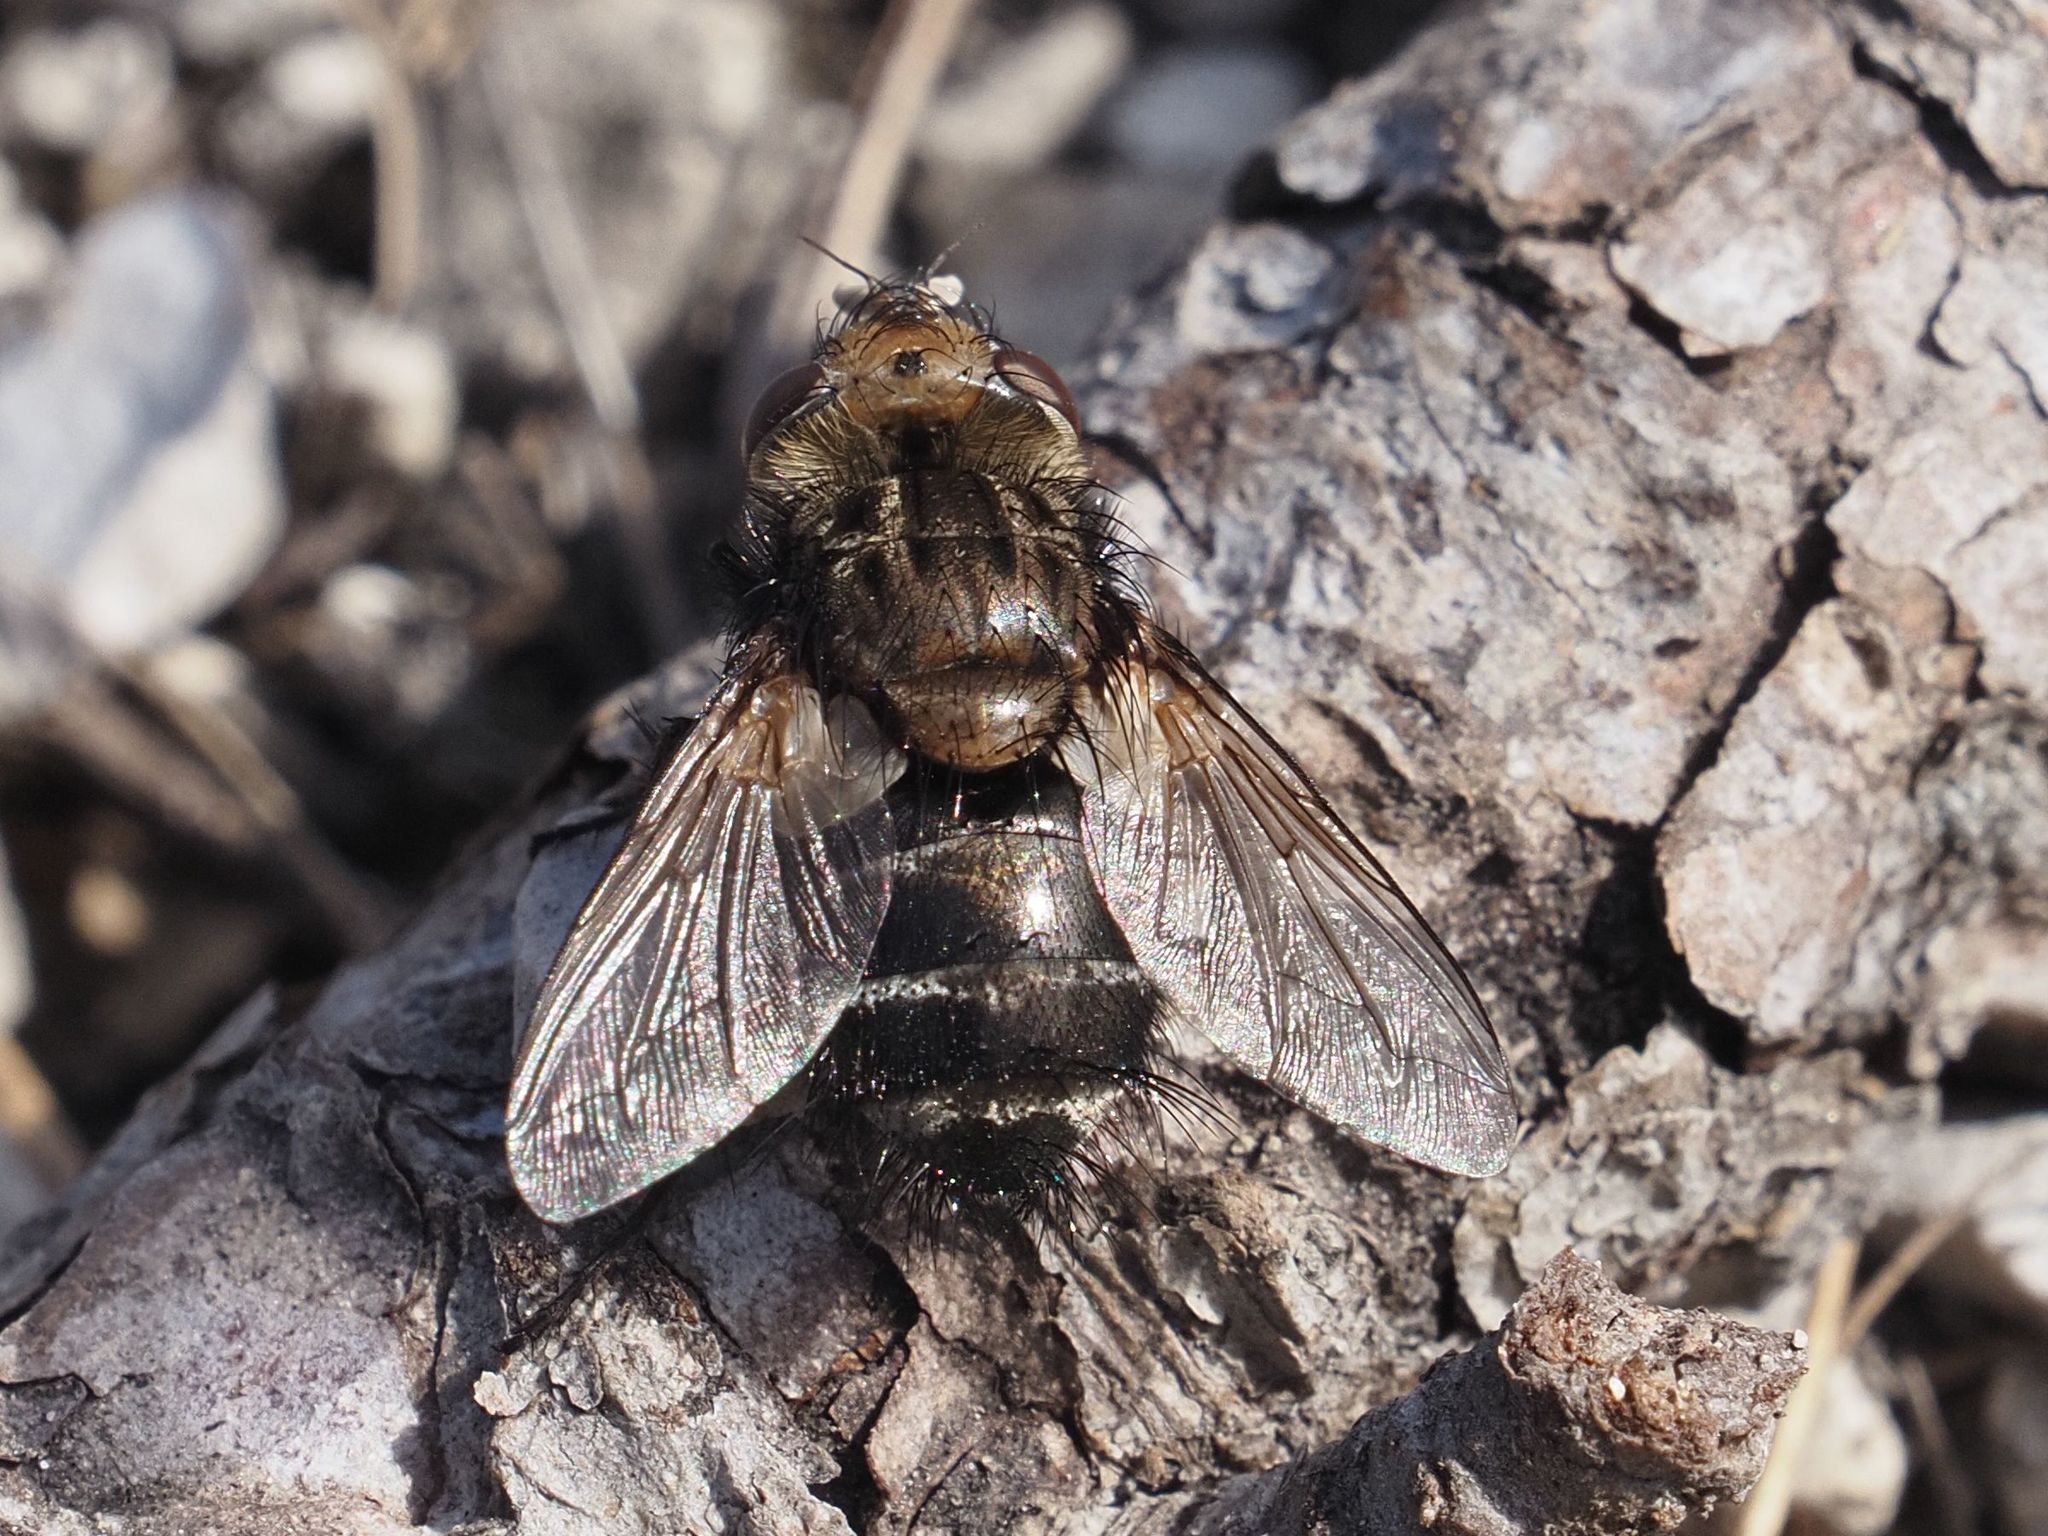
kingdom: Animalia
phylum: Arthropoda
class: Insecta
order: Diptera
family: Tachinidae
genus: Gonia
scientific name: Gonia picea
